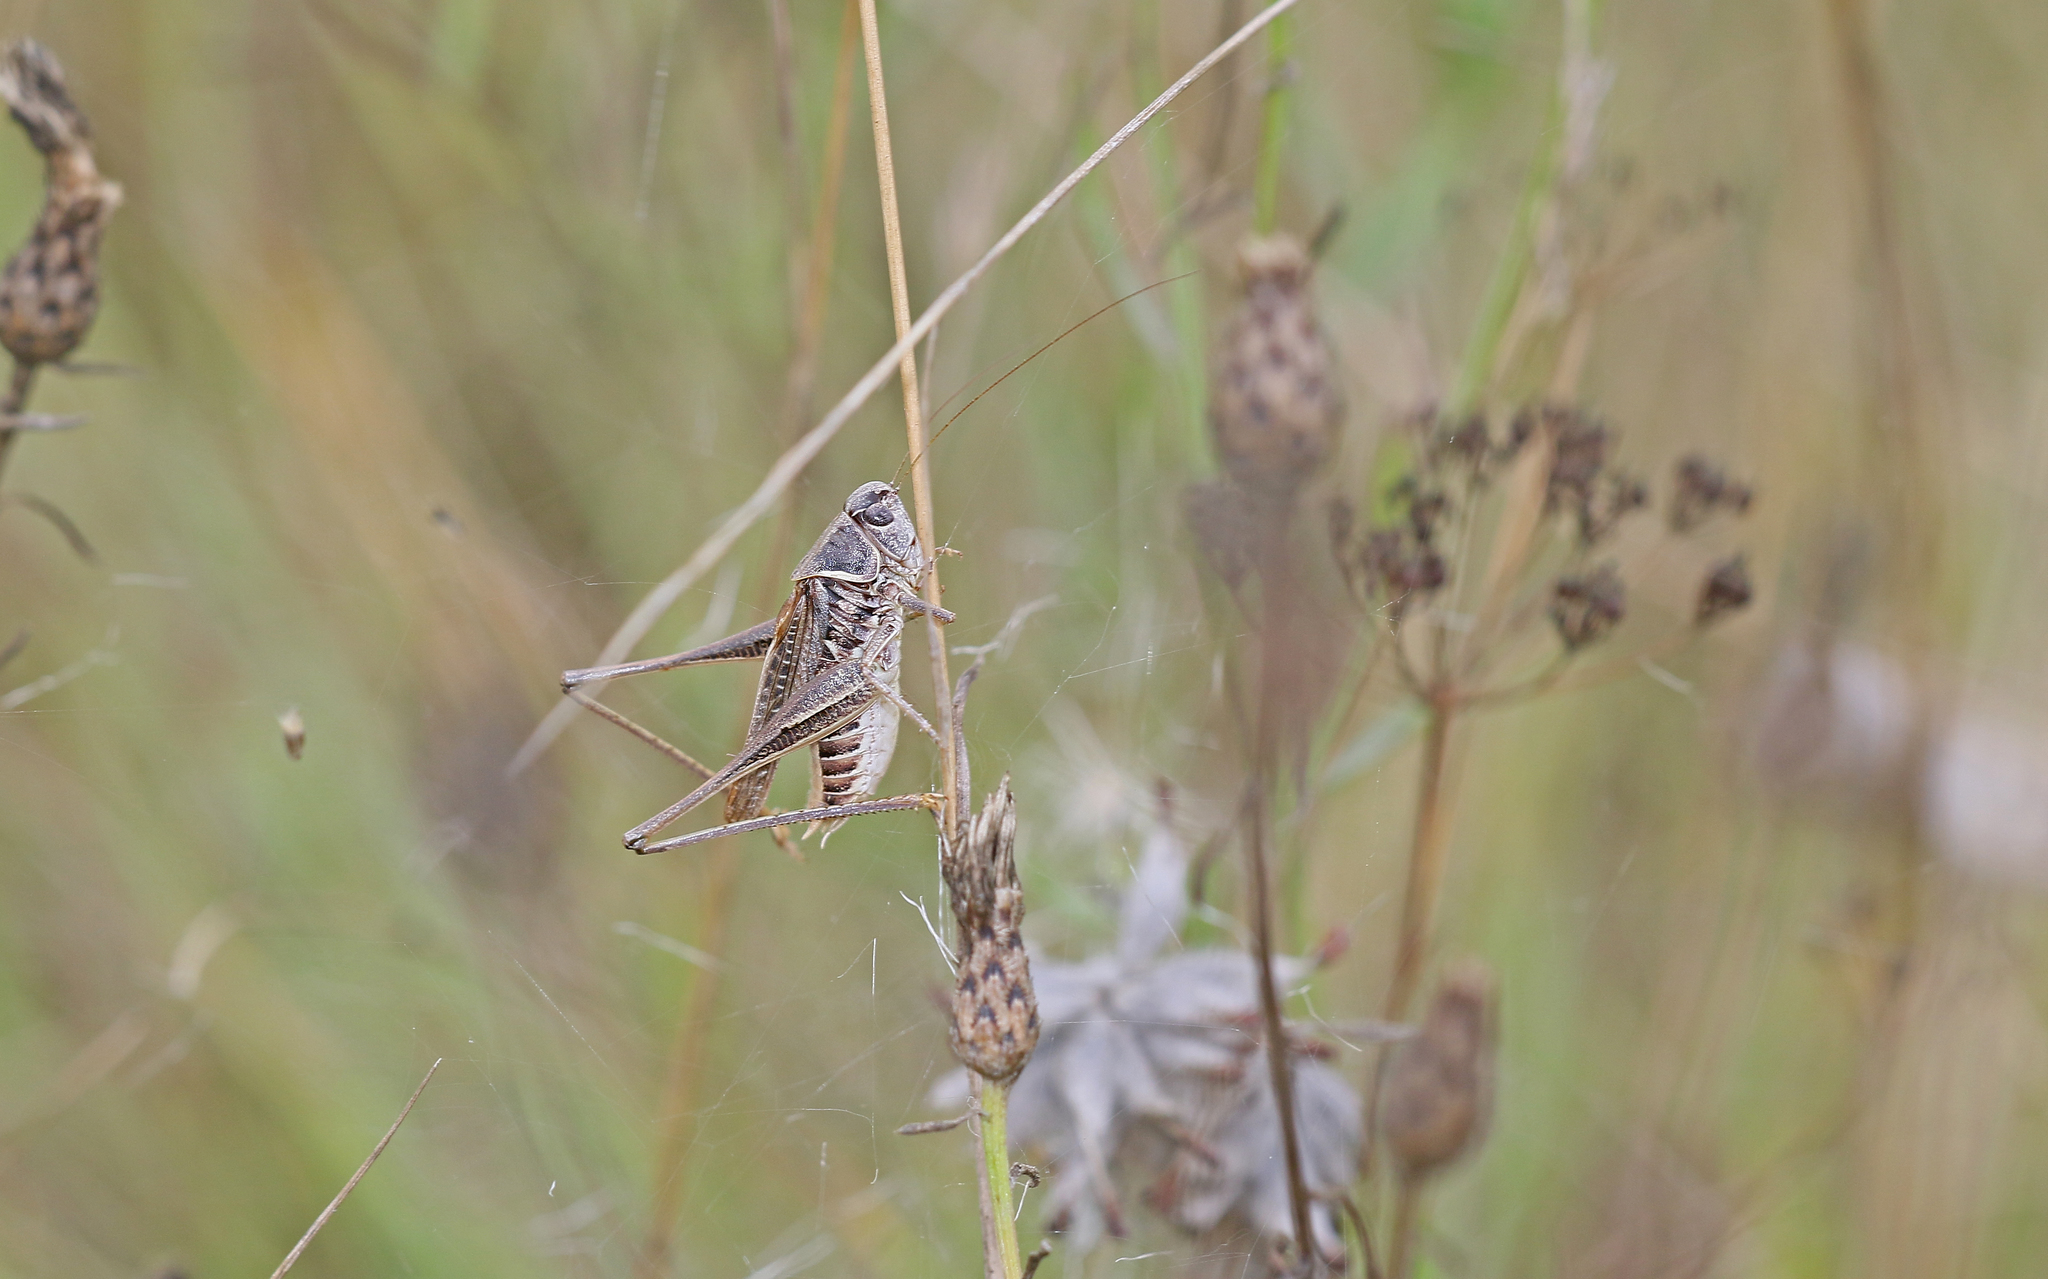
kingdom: Animalia
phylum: Arthropoda
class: Insecta
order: Orthoptera
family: Tettigoniidae
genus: Montana
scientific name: Montana montana
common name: Steppe bush-cricket
